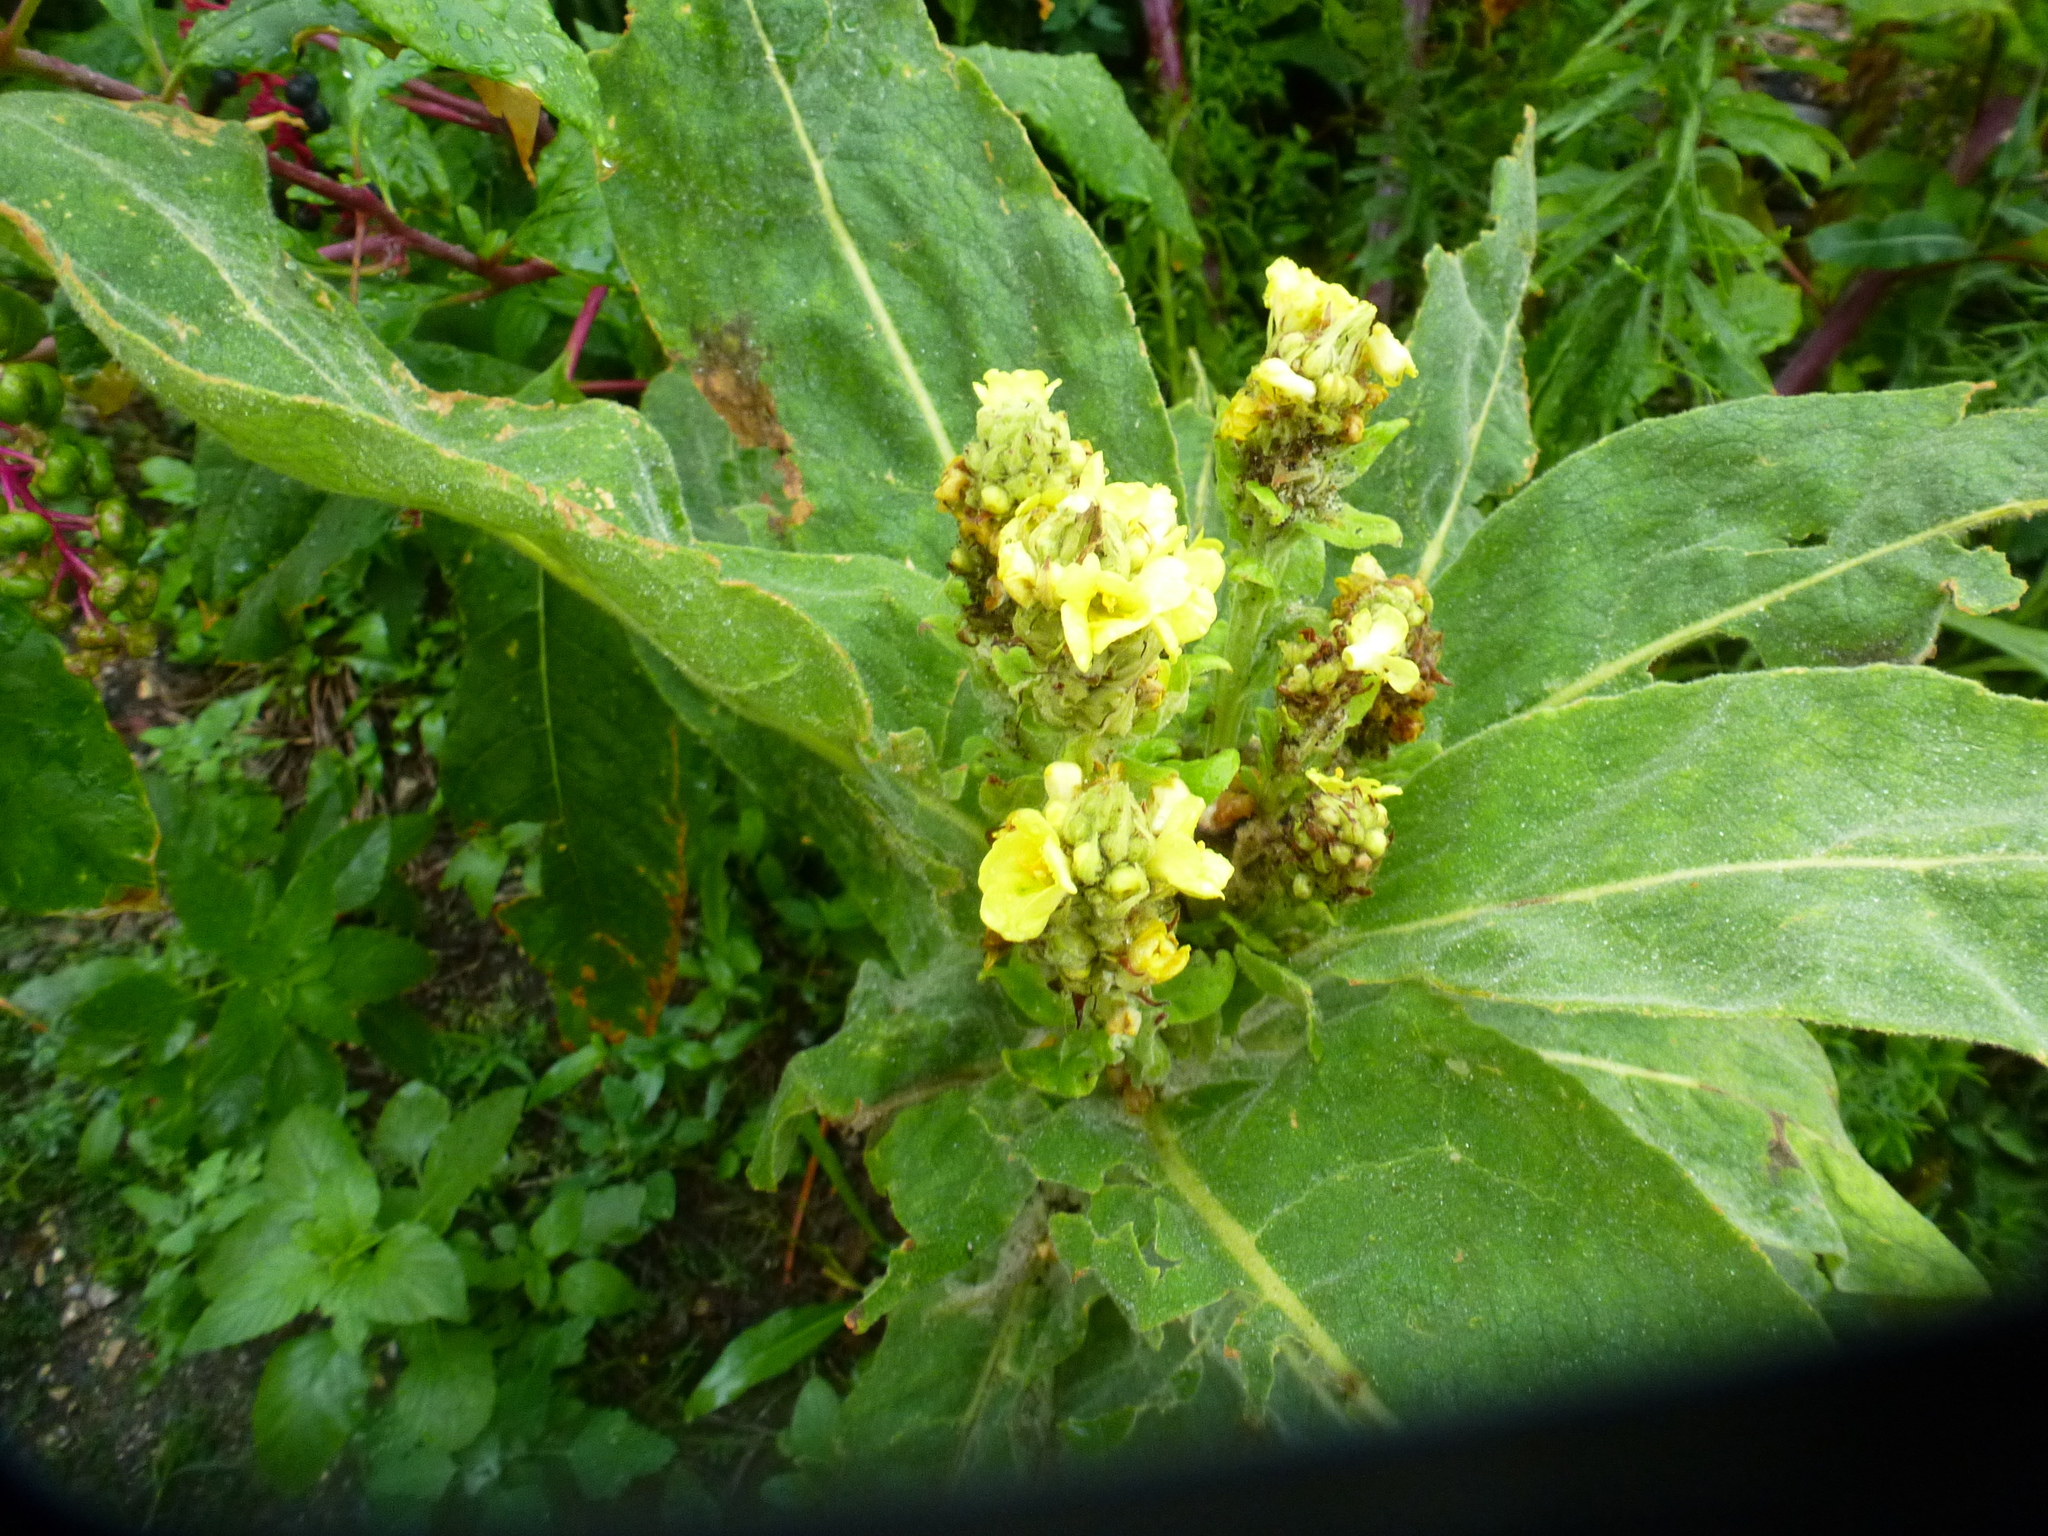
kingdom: Plantae
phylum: Tracheophyta
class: Magnoliopsida
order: Lamiales
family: Scrophulariaceae
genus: Verbascum
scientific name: Verbascum thapsus
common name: Common mullein
